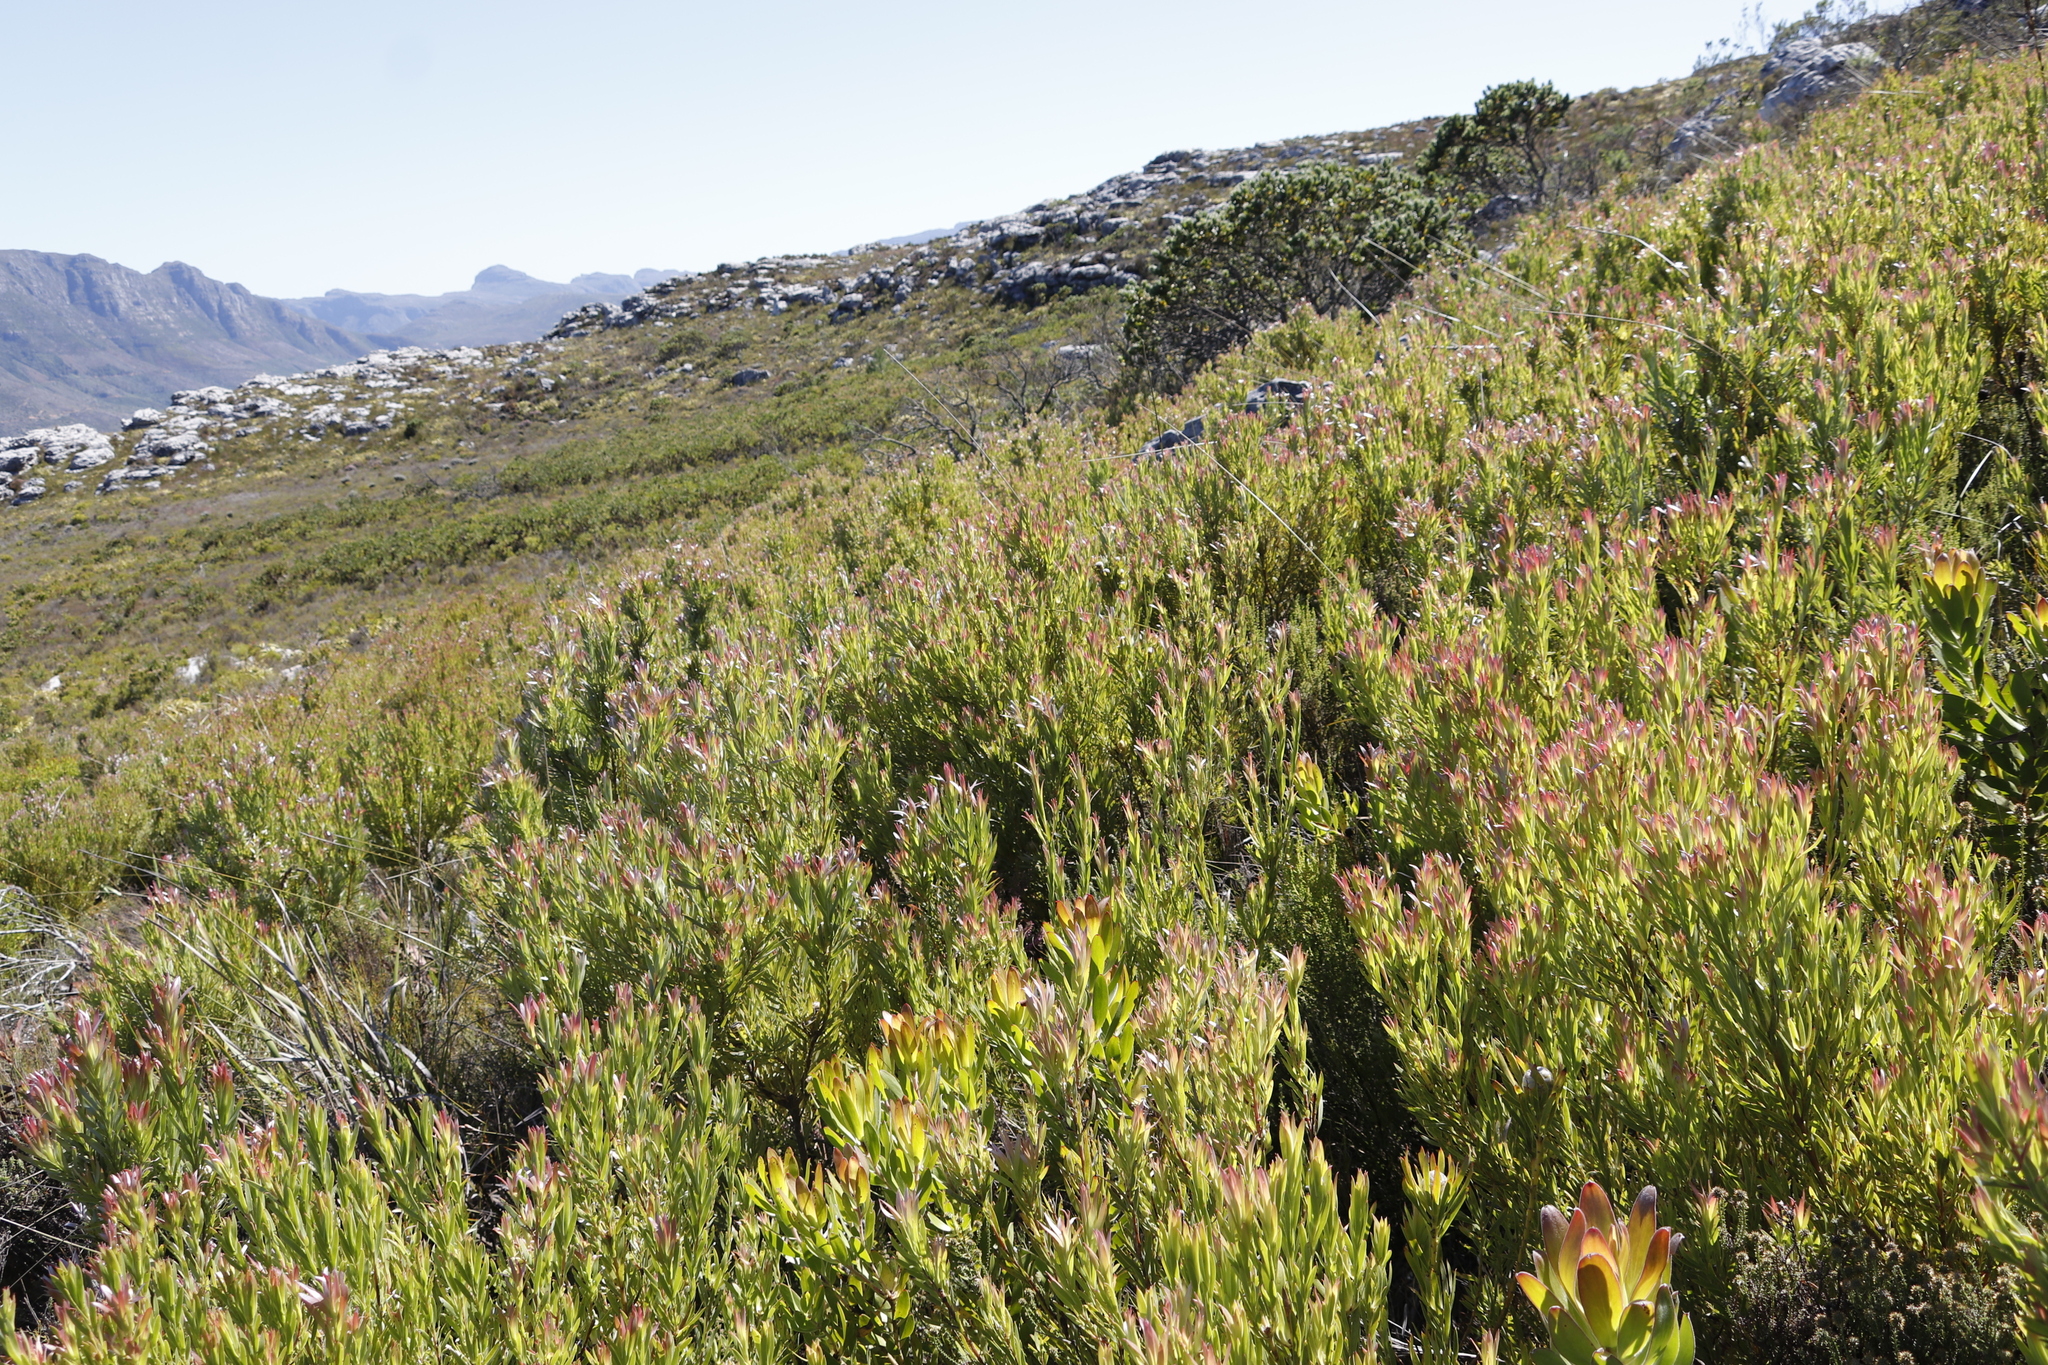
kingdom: Plantae
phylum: Tracheophyta
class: Magnoliopsida
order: Proteales
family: Proteaceae
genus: Leucadendron
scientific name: Leucadendron xanthoconus
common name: Sickle-leaf conebush
